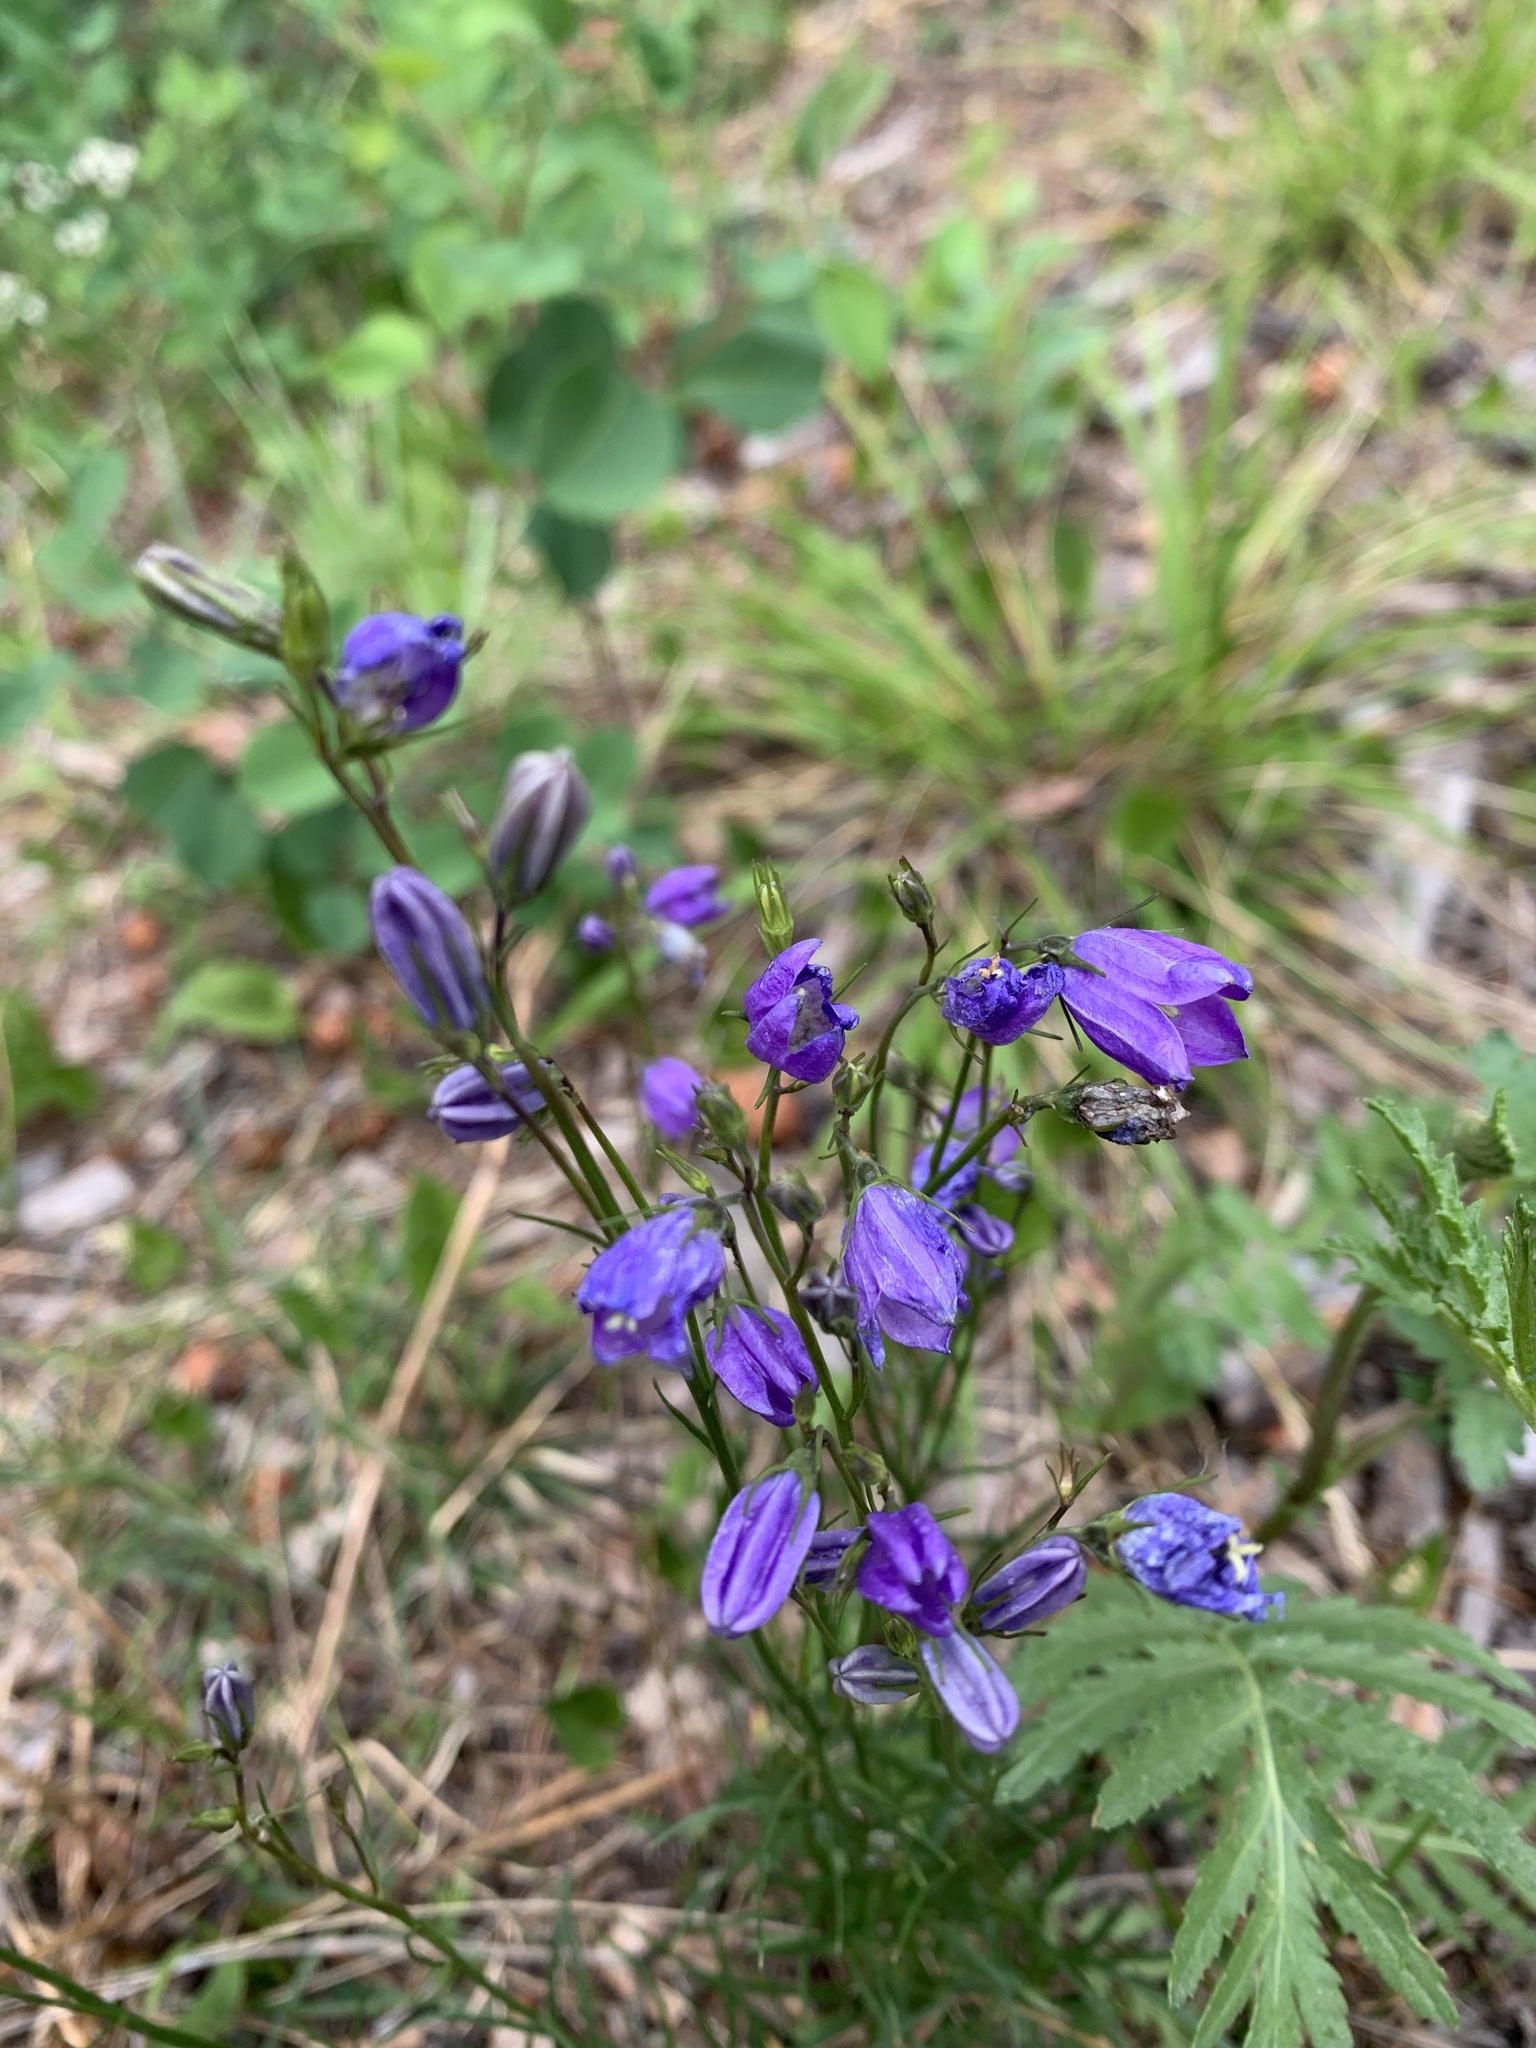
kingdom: Plantae
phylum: Tracheophyta
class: Magnoliopsida
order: Asterales
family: Campanulaceae
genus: Campanula
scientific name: Campanula alaskana
